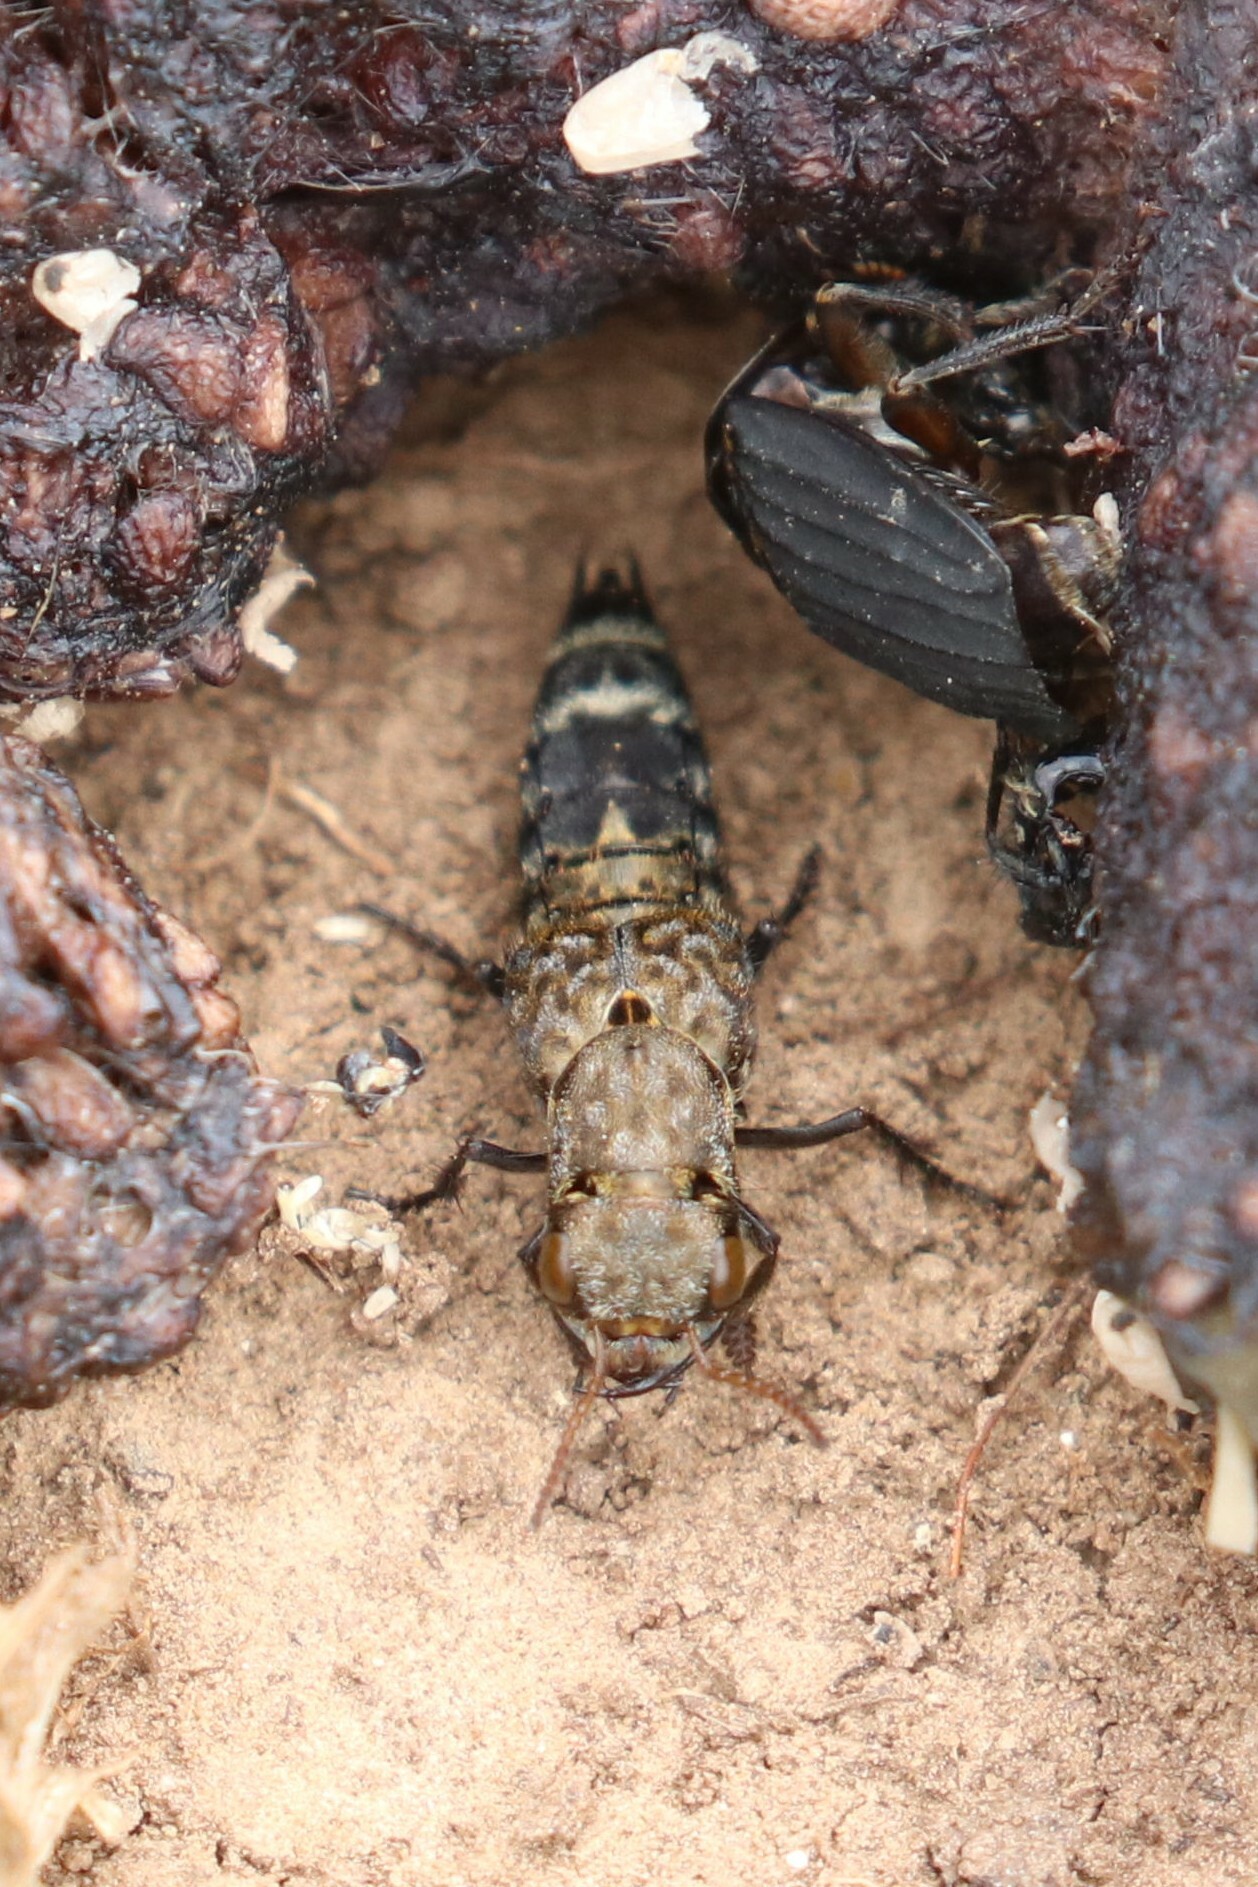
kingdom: Animalia
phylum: Arthropoda
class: Insecta
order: Coleoptera
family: Staphylinidae
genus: Ontholestes
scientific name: Ontholestes murinus
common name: Staph beetle
